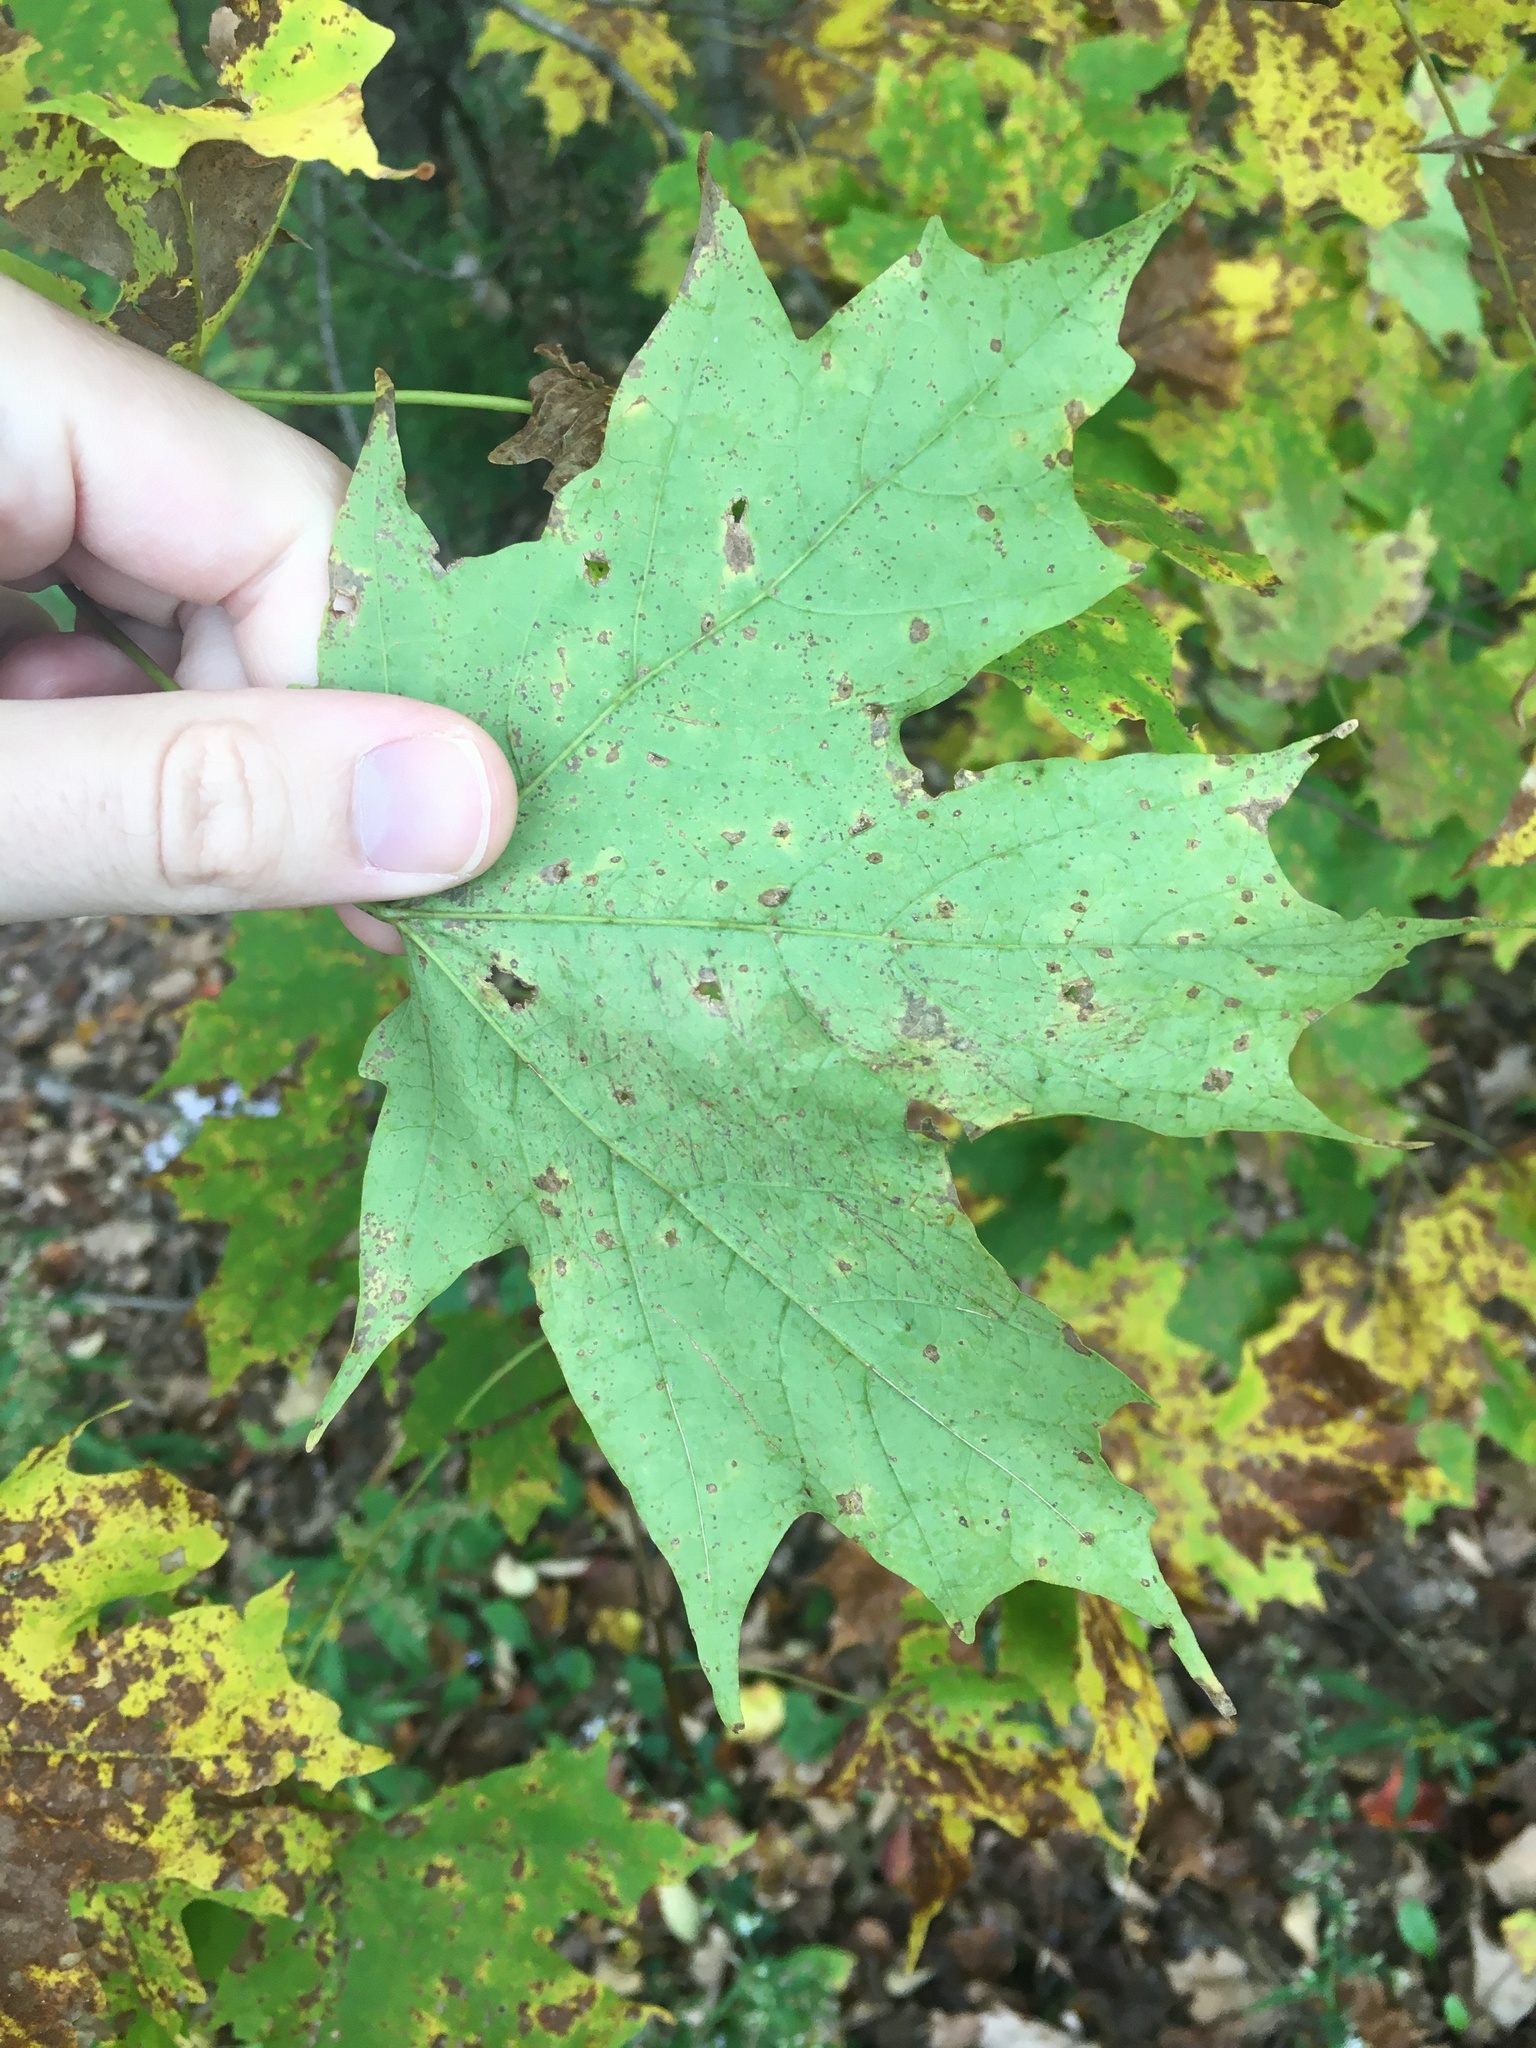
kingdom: Plantae
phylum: Tracheophyta
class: Magnoliopsida
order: Sapindales
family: Sapindaceae
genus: Acer
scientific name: Acer saccharum
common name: Sugar maple
